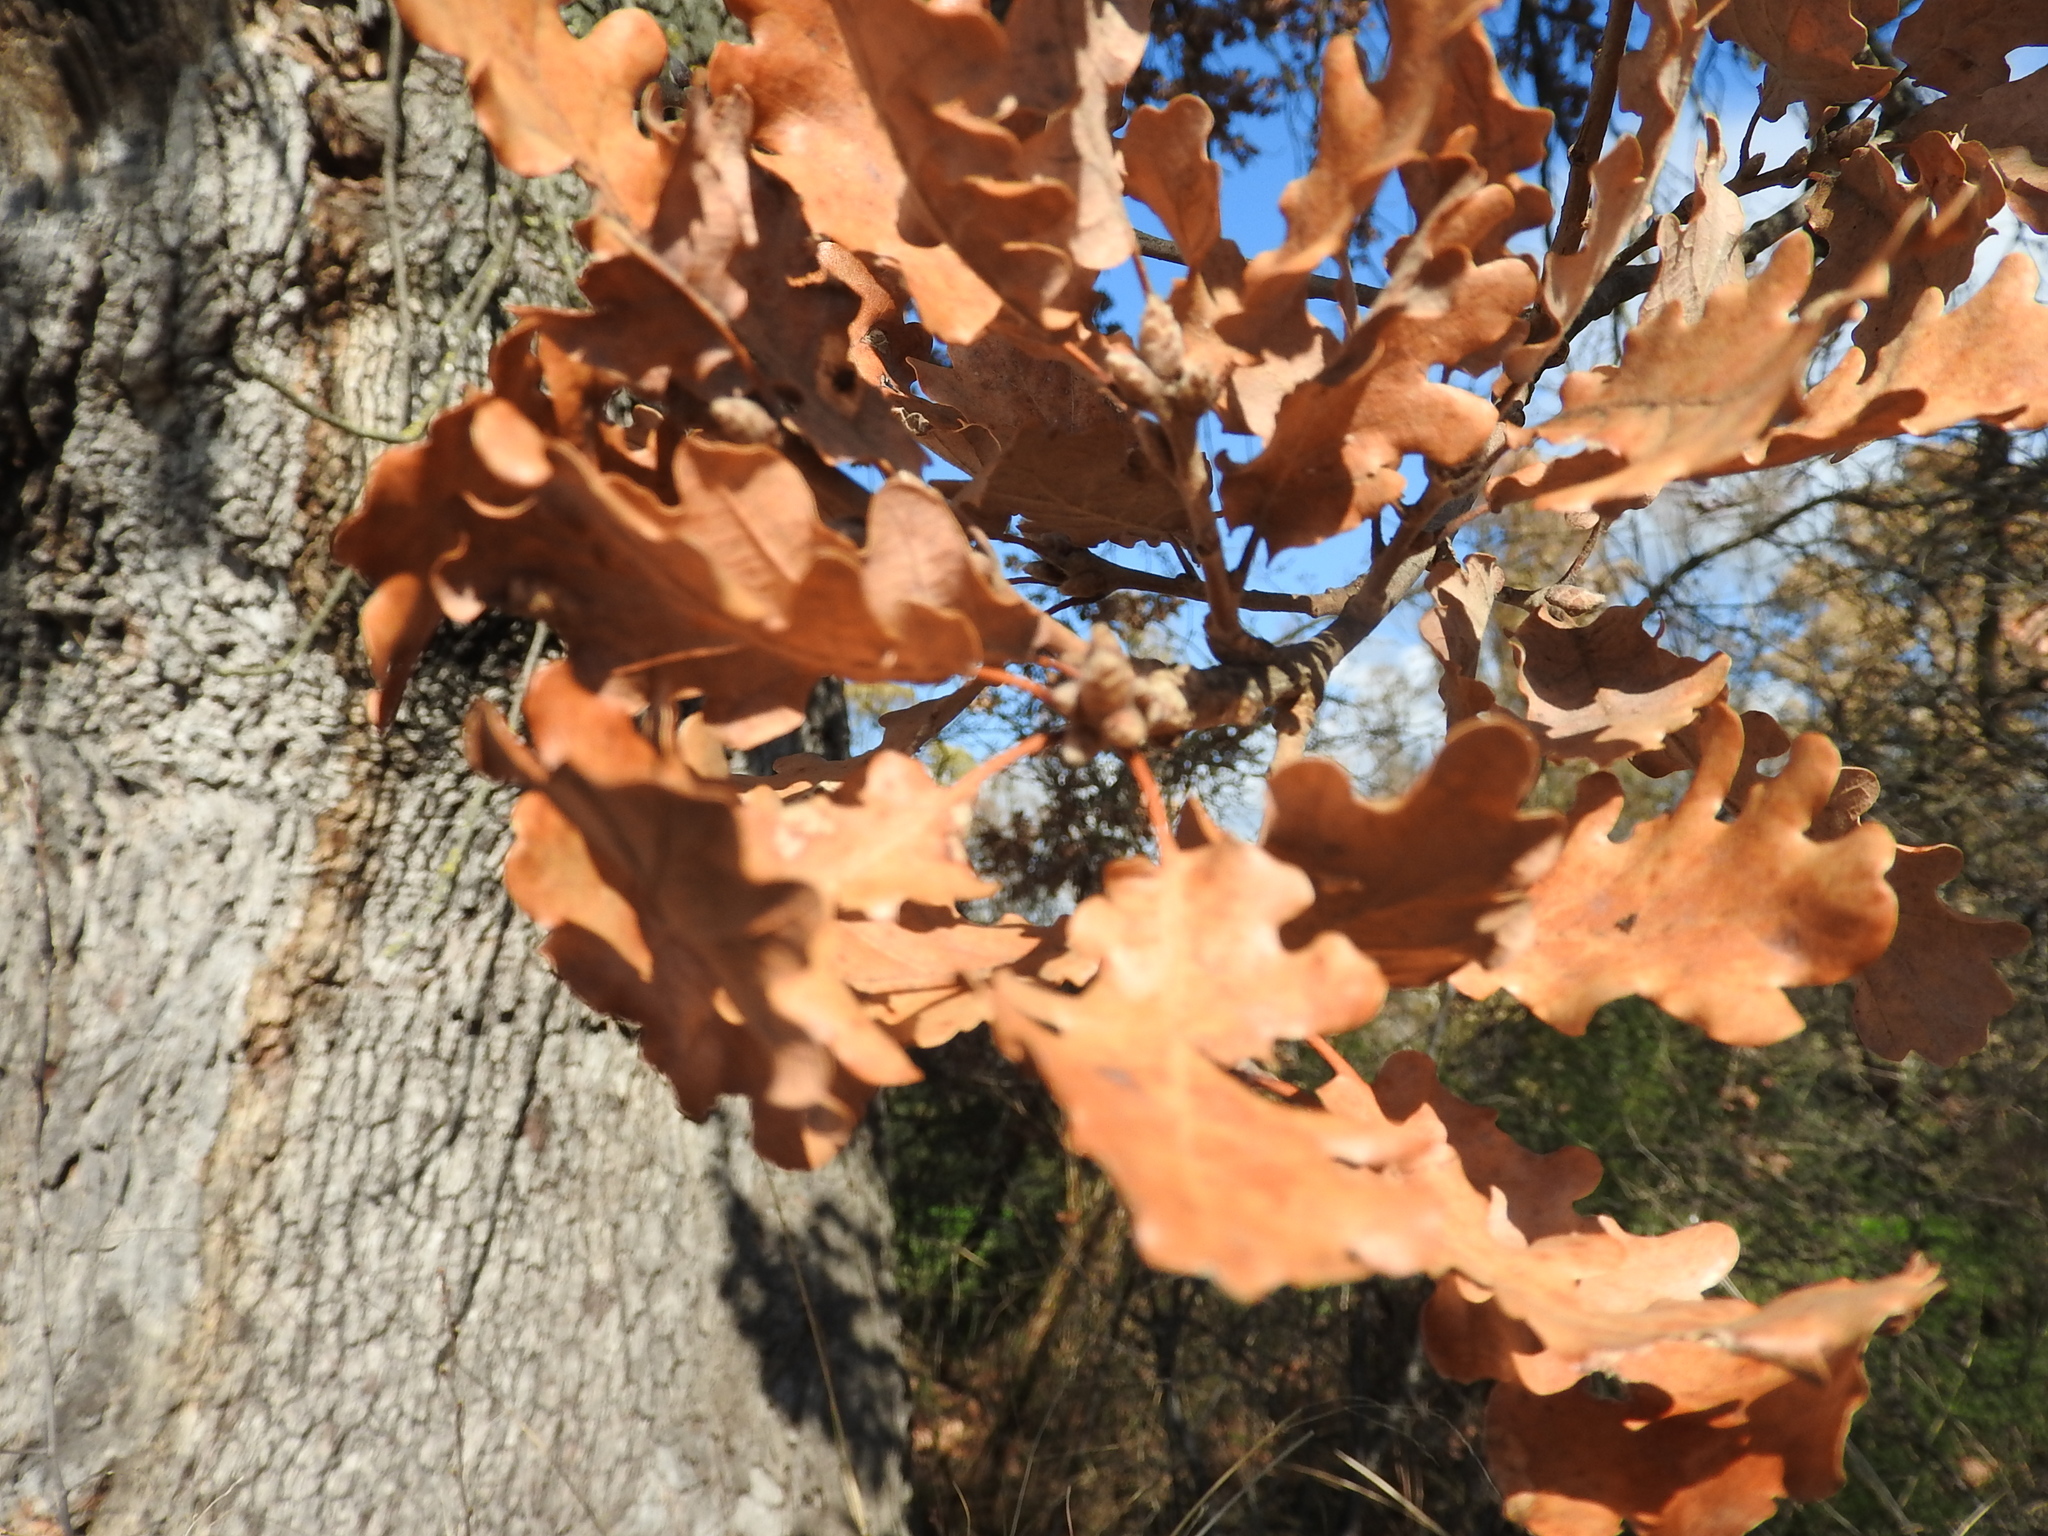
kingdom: Plantae
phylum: Tracheophyta
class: Magnoliopsida
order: Fagales
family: Fagaceae
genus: Quercus
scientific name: Quercus pubescens
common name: Downy oak
